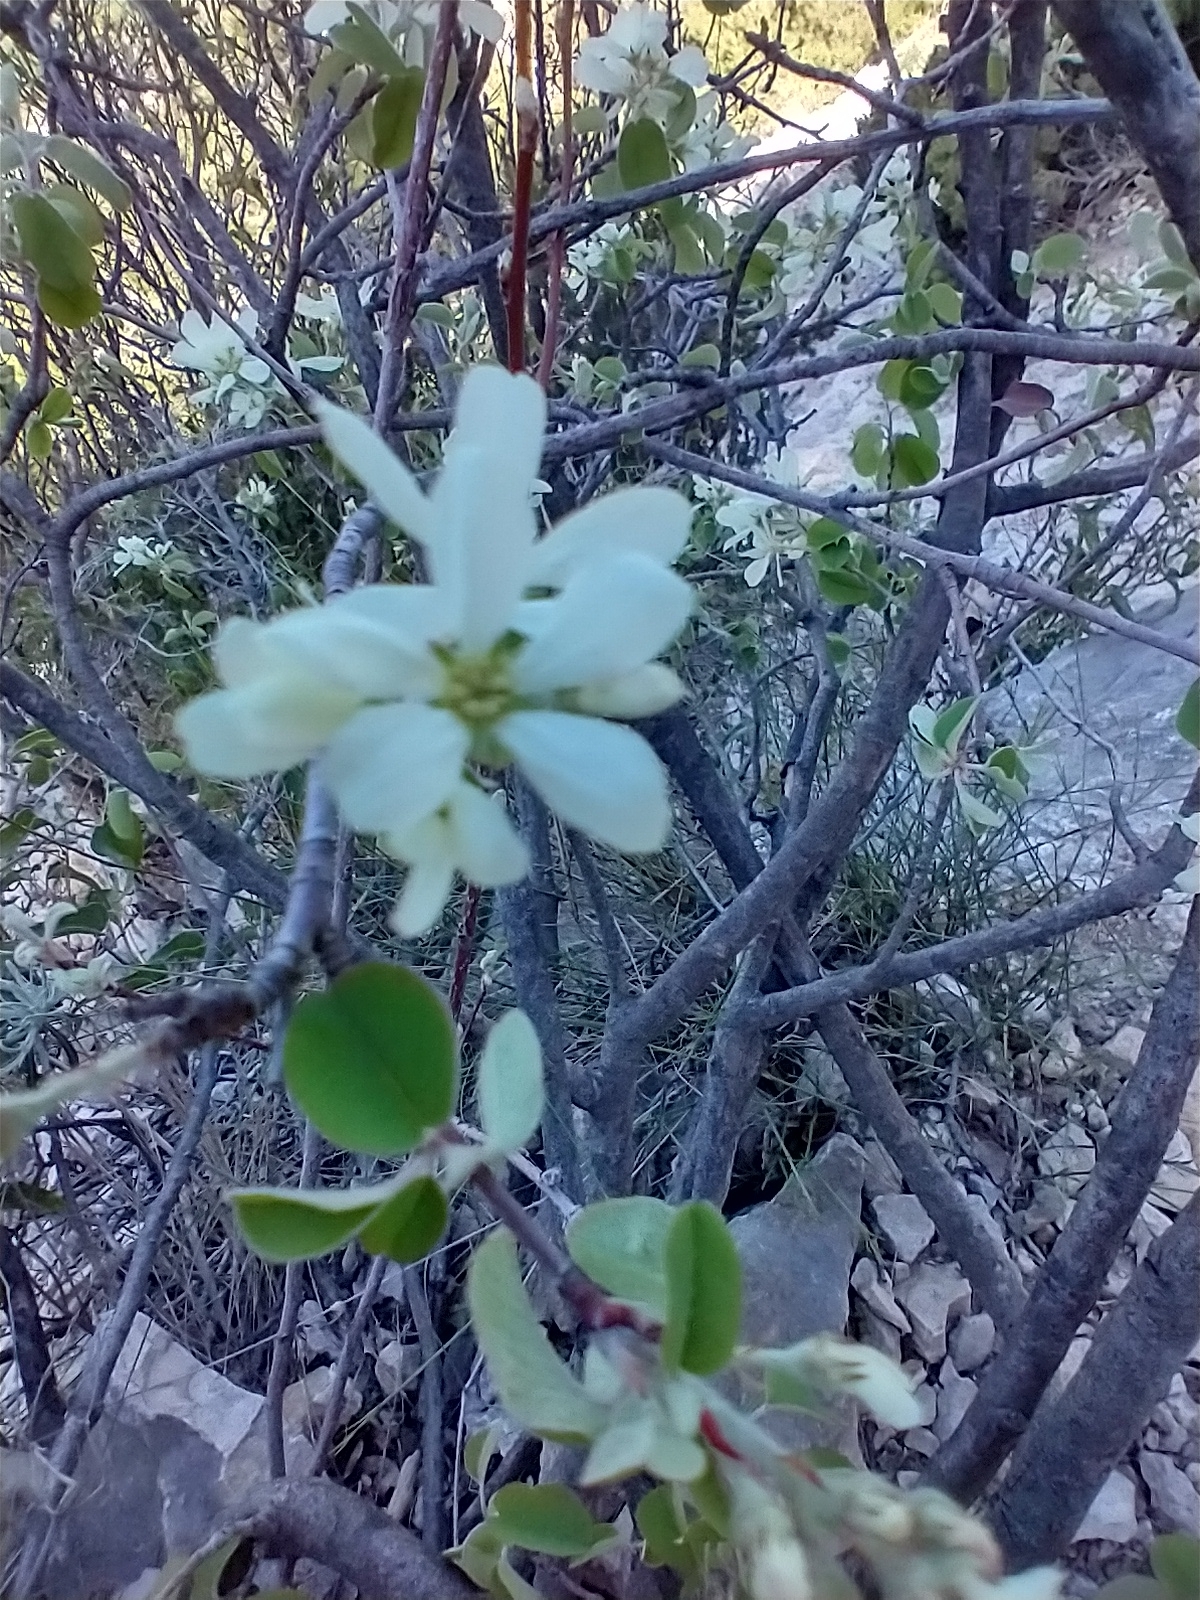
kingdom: Plantae
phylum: Tracheophyta
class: Magnoliopsida
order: Rosales
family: Rosaceae
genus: Amelanchier
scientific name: Amelanchier ovalis
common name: Serviceberry
